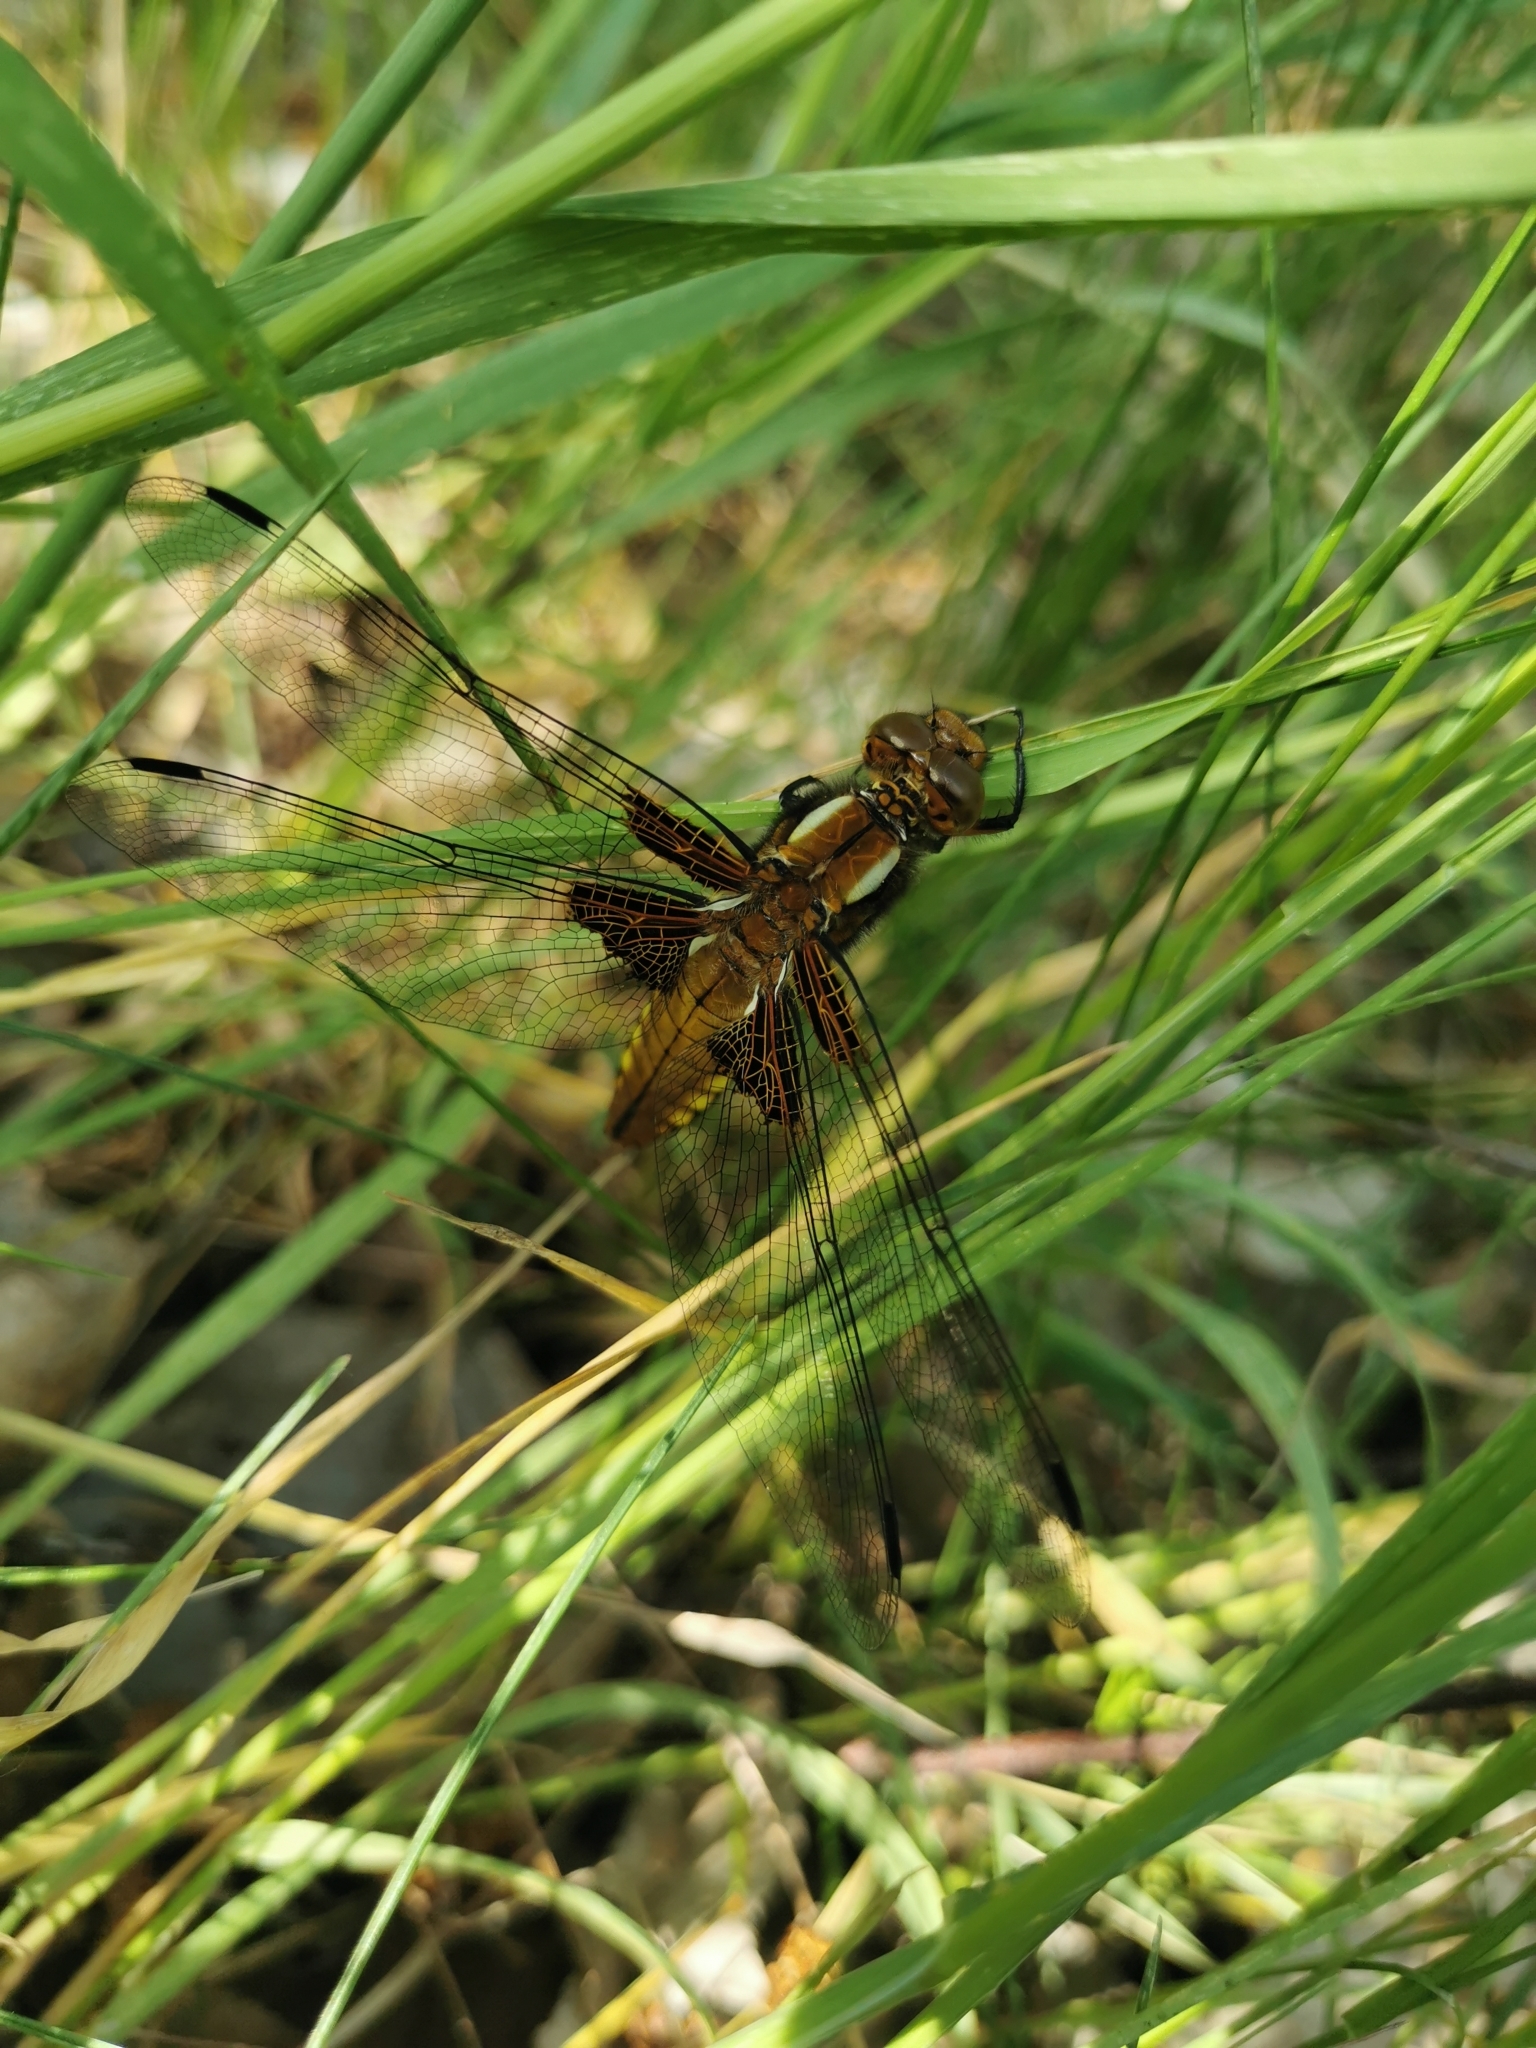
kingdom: Animalia
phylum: Arthropoda
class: Insecta
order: Odonata
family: Libellulidae
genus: Libellula
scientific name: Libellula depressa
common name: Broad-bodied chaser
